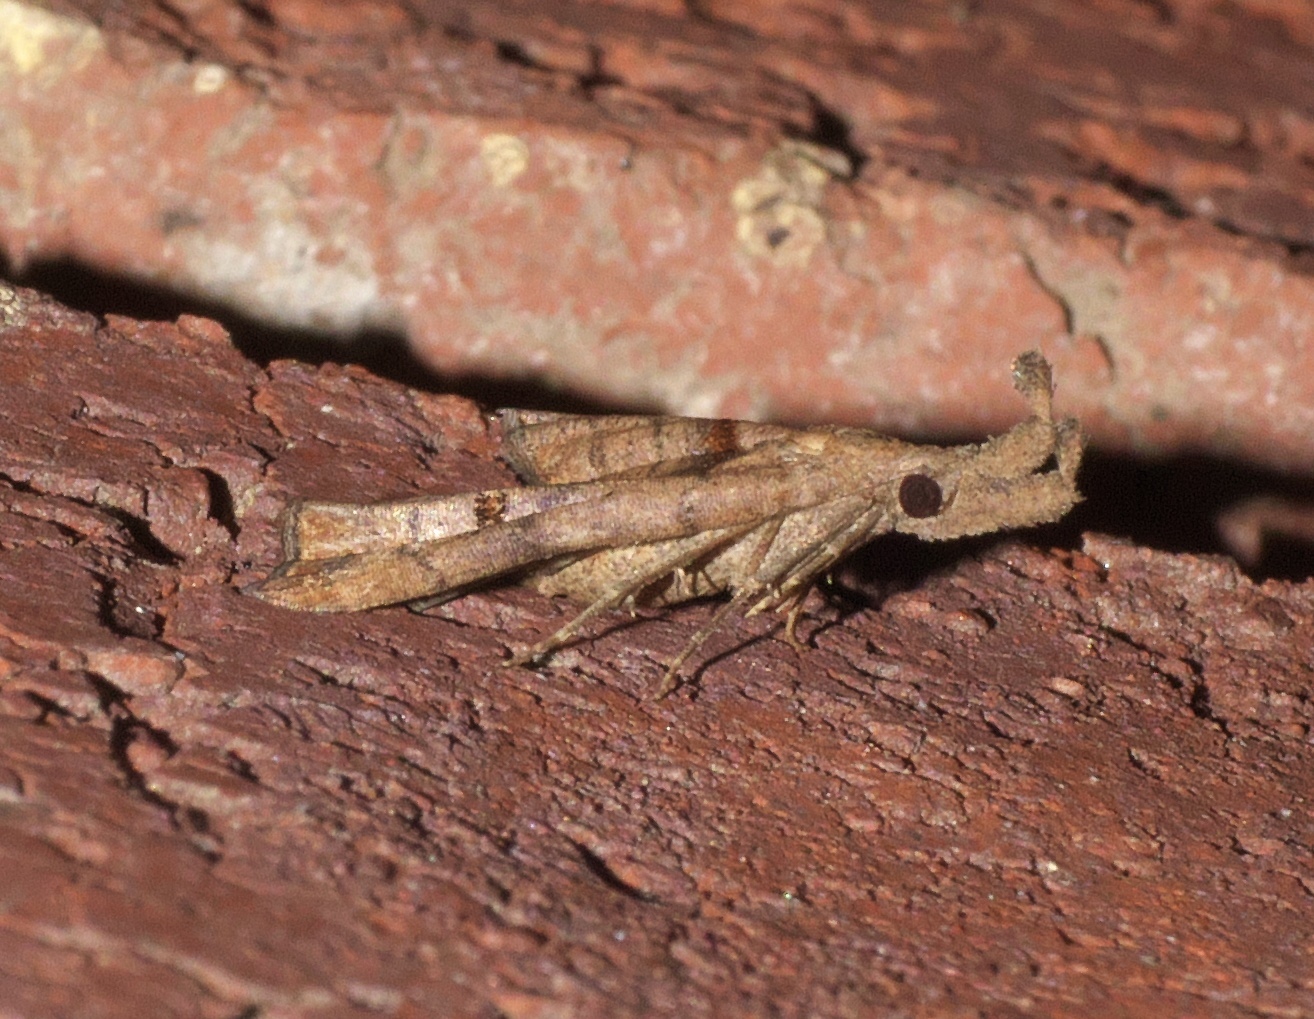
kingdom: Animalia
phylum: Arthropoda
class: Insecta
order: Lepidoptera
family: Erebidae
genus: Palthis
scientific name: Palthis angulalis
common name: Dark-spotted palthis moth
